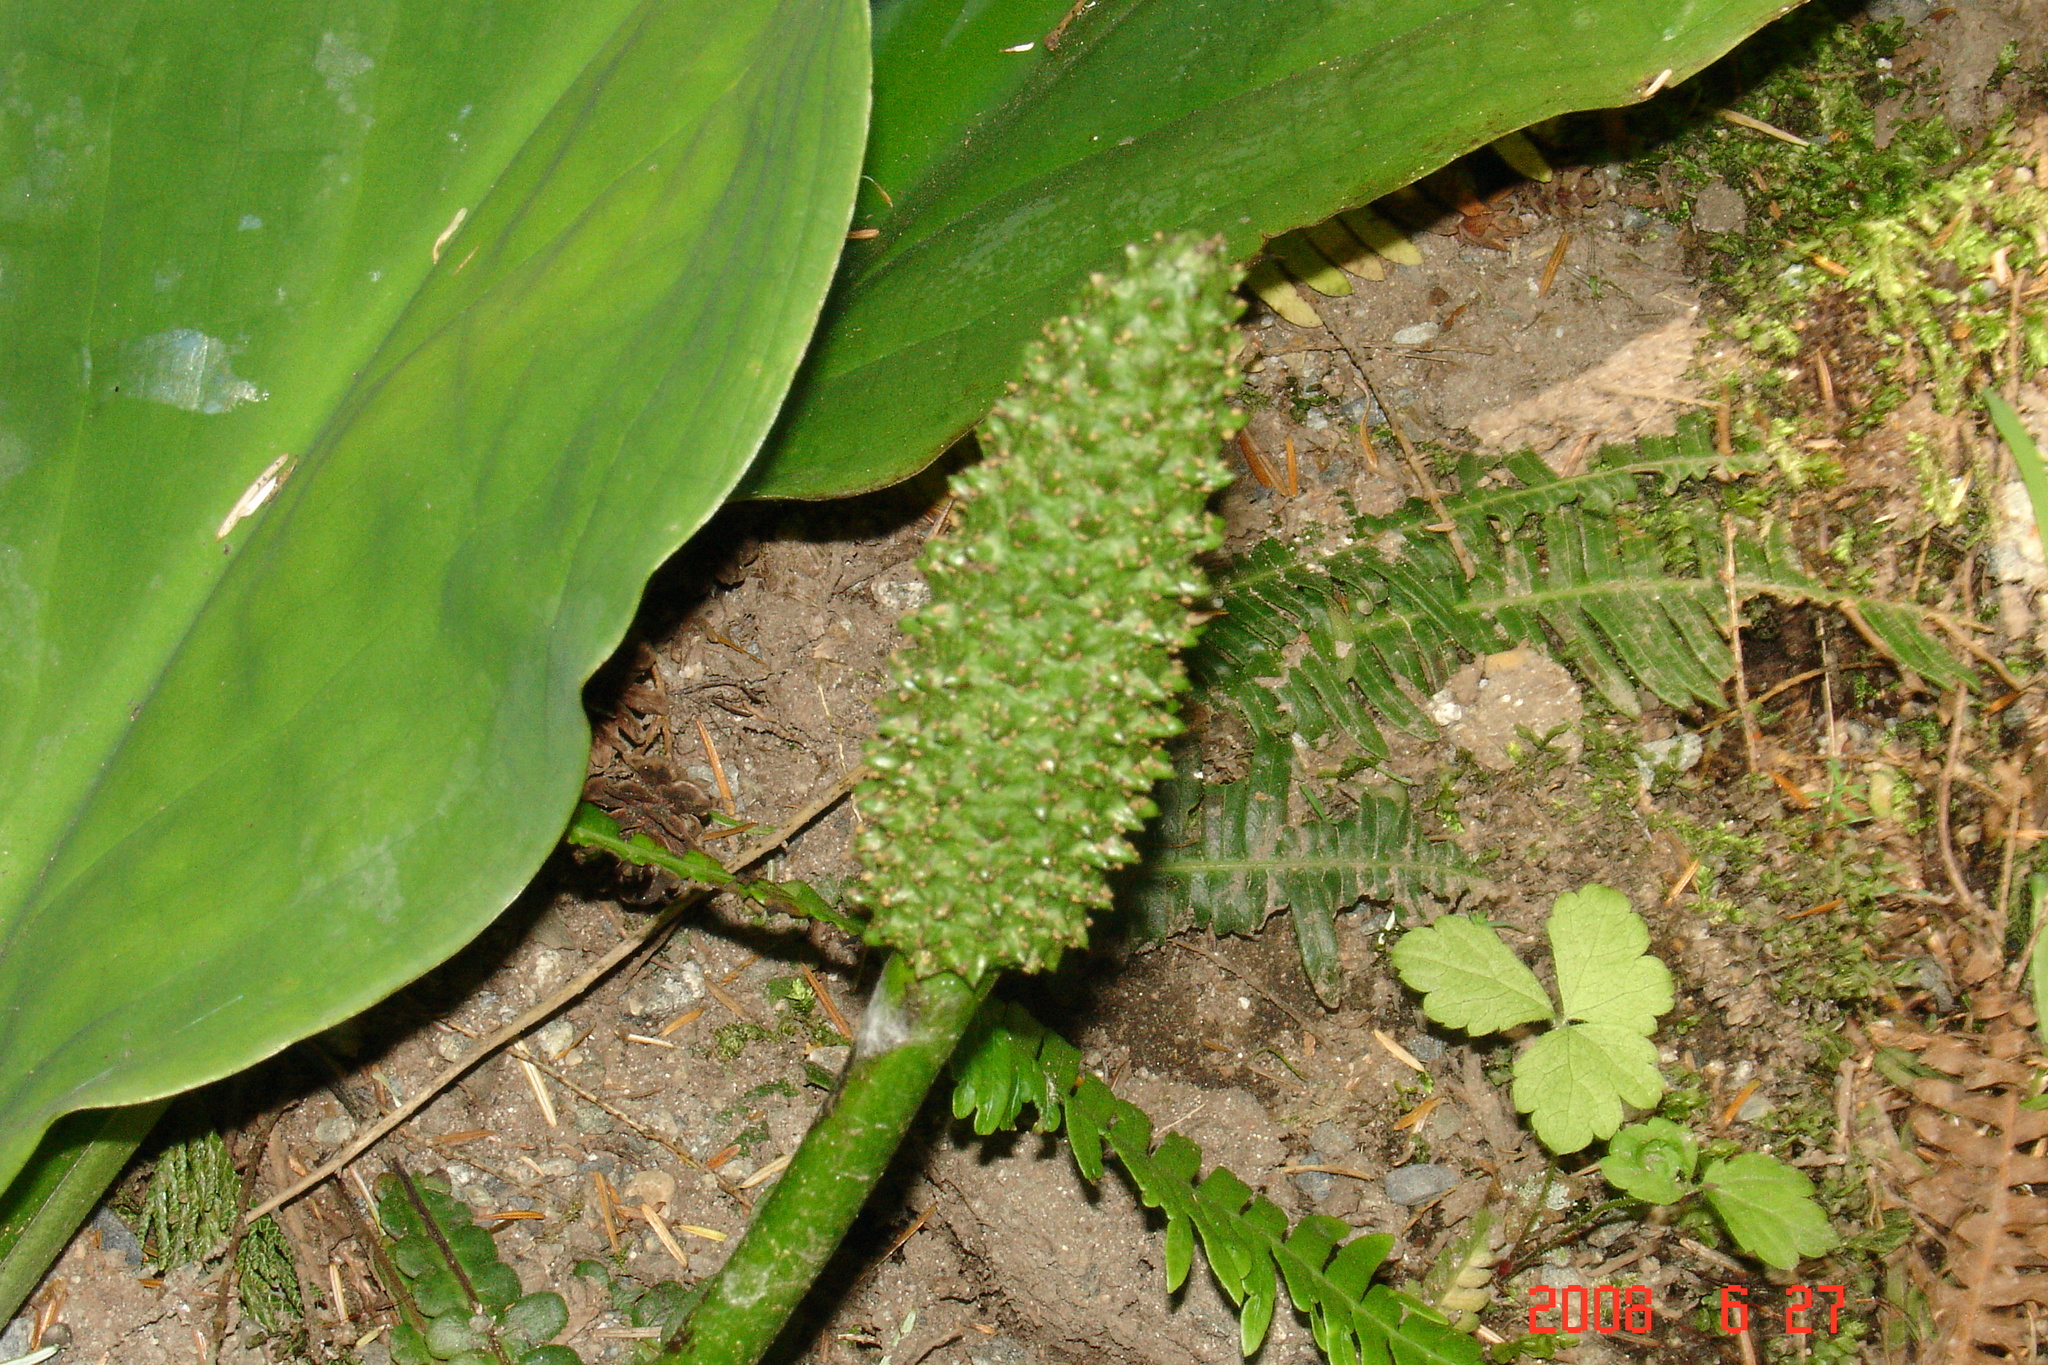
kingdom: Plantae
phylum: Tracheophyta
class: Liliopsida
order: Alismatales
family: Araceae
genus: Lysichiton
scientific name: Lysichiton americanus
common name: American skunk cabbage
